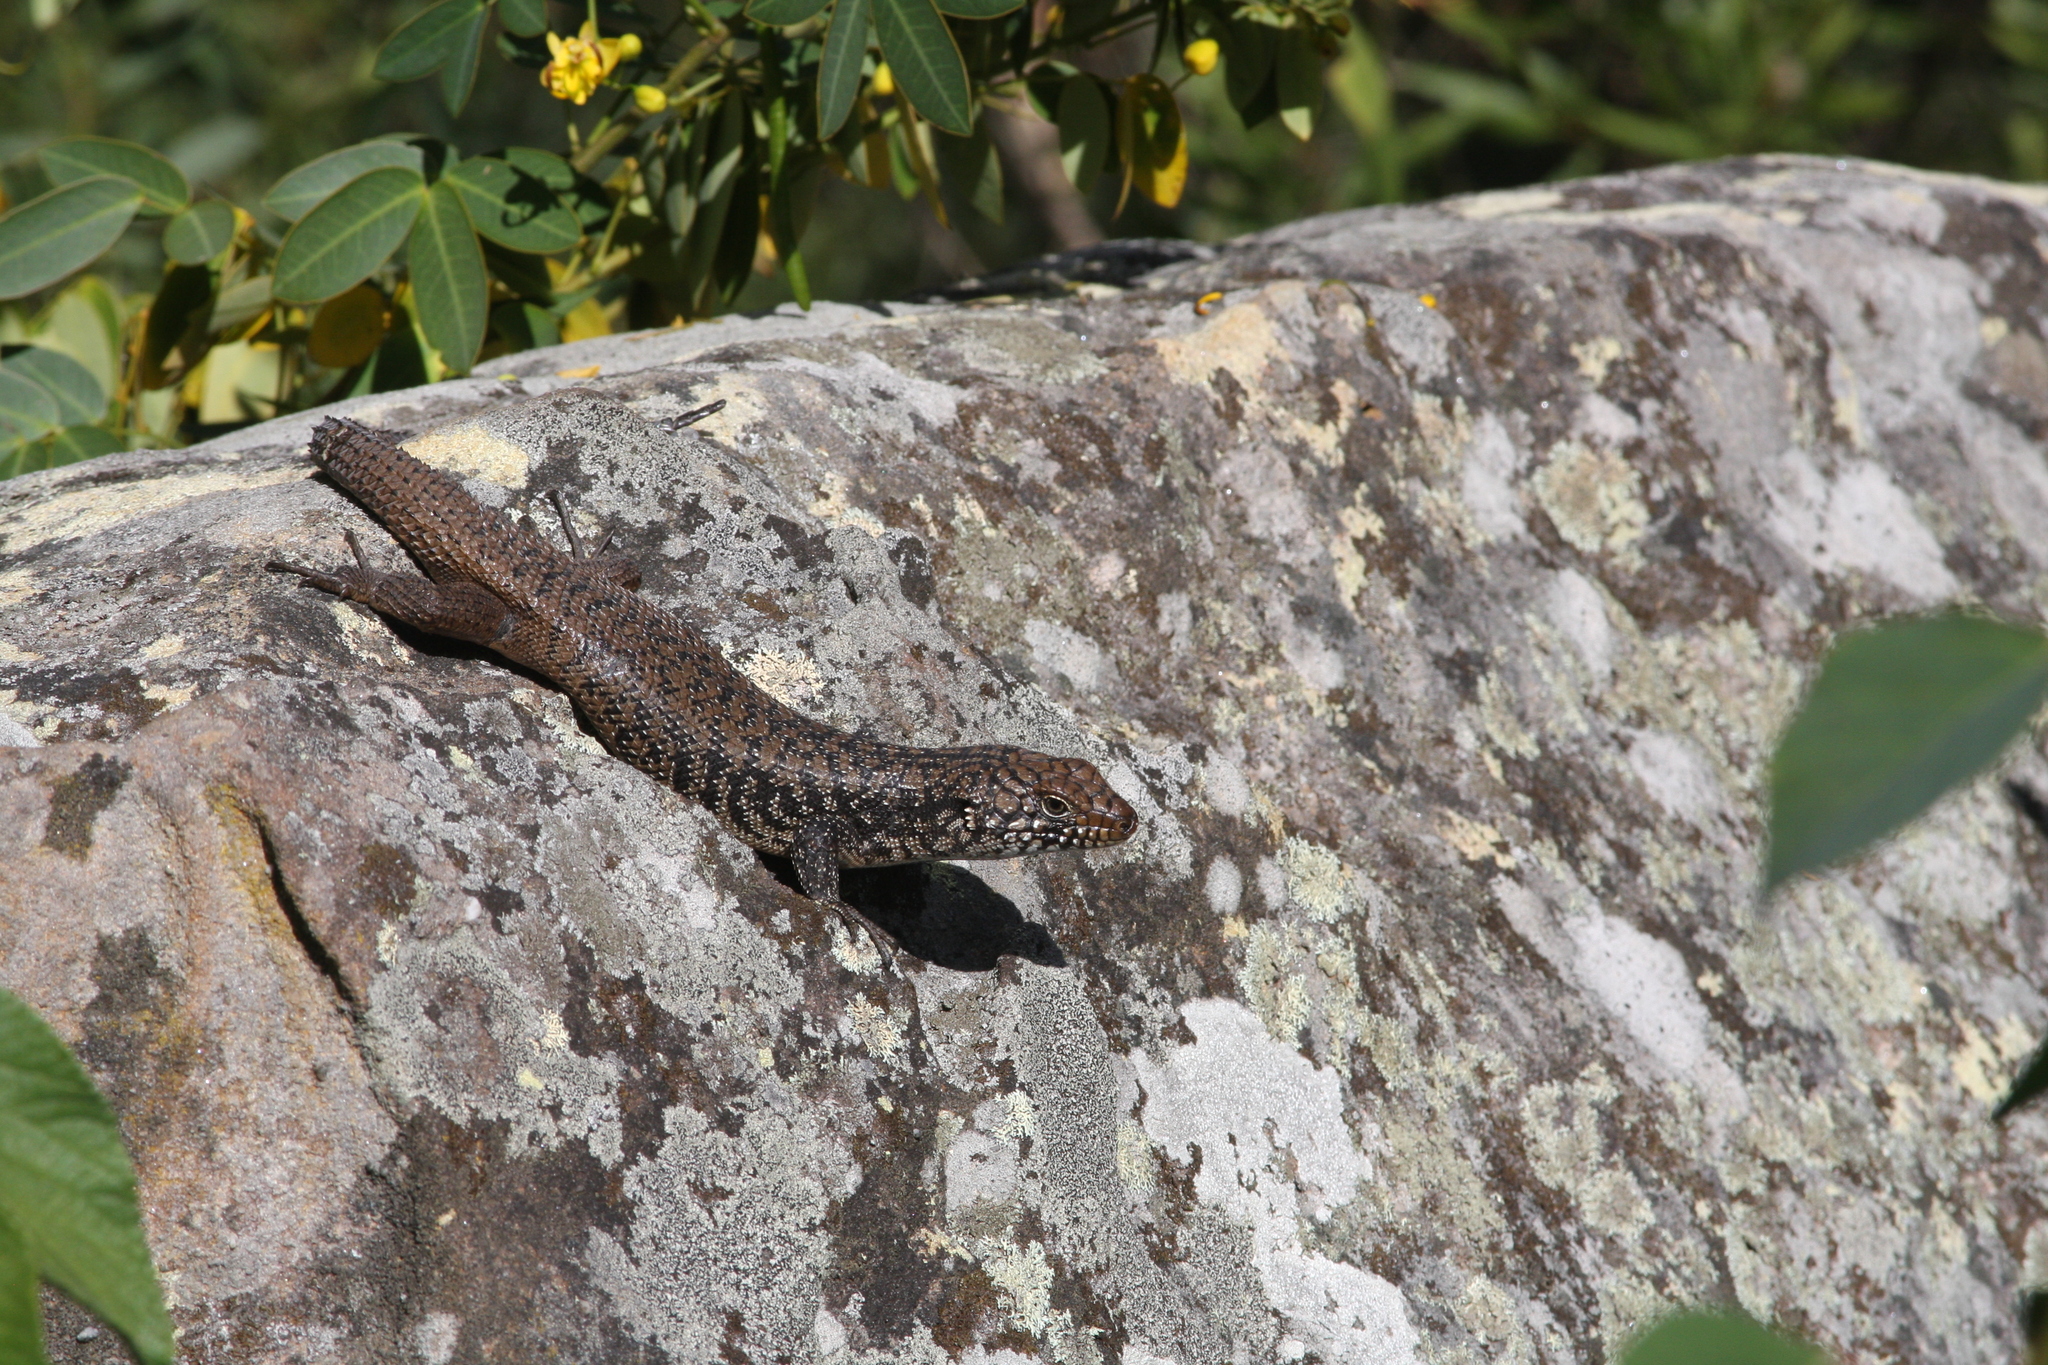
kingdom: Animalia
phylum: Chordata
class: Squamata
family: Scincidae
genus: Egernia
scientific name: Egernia cunninghami
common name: Cunningham's skink
